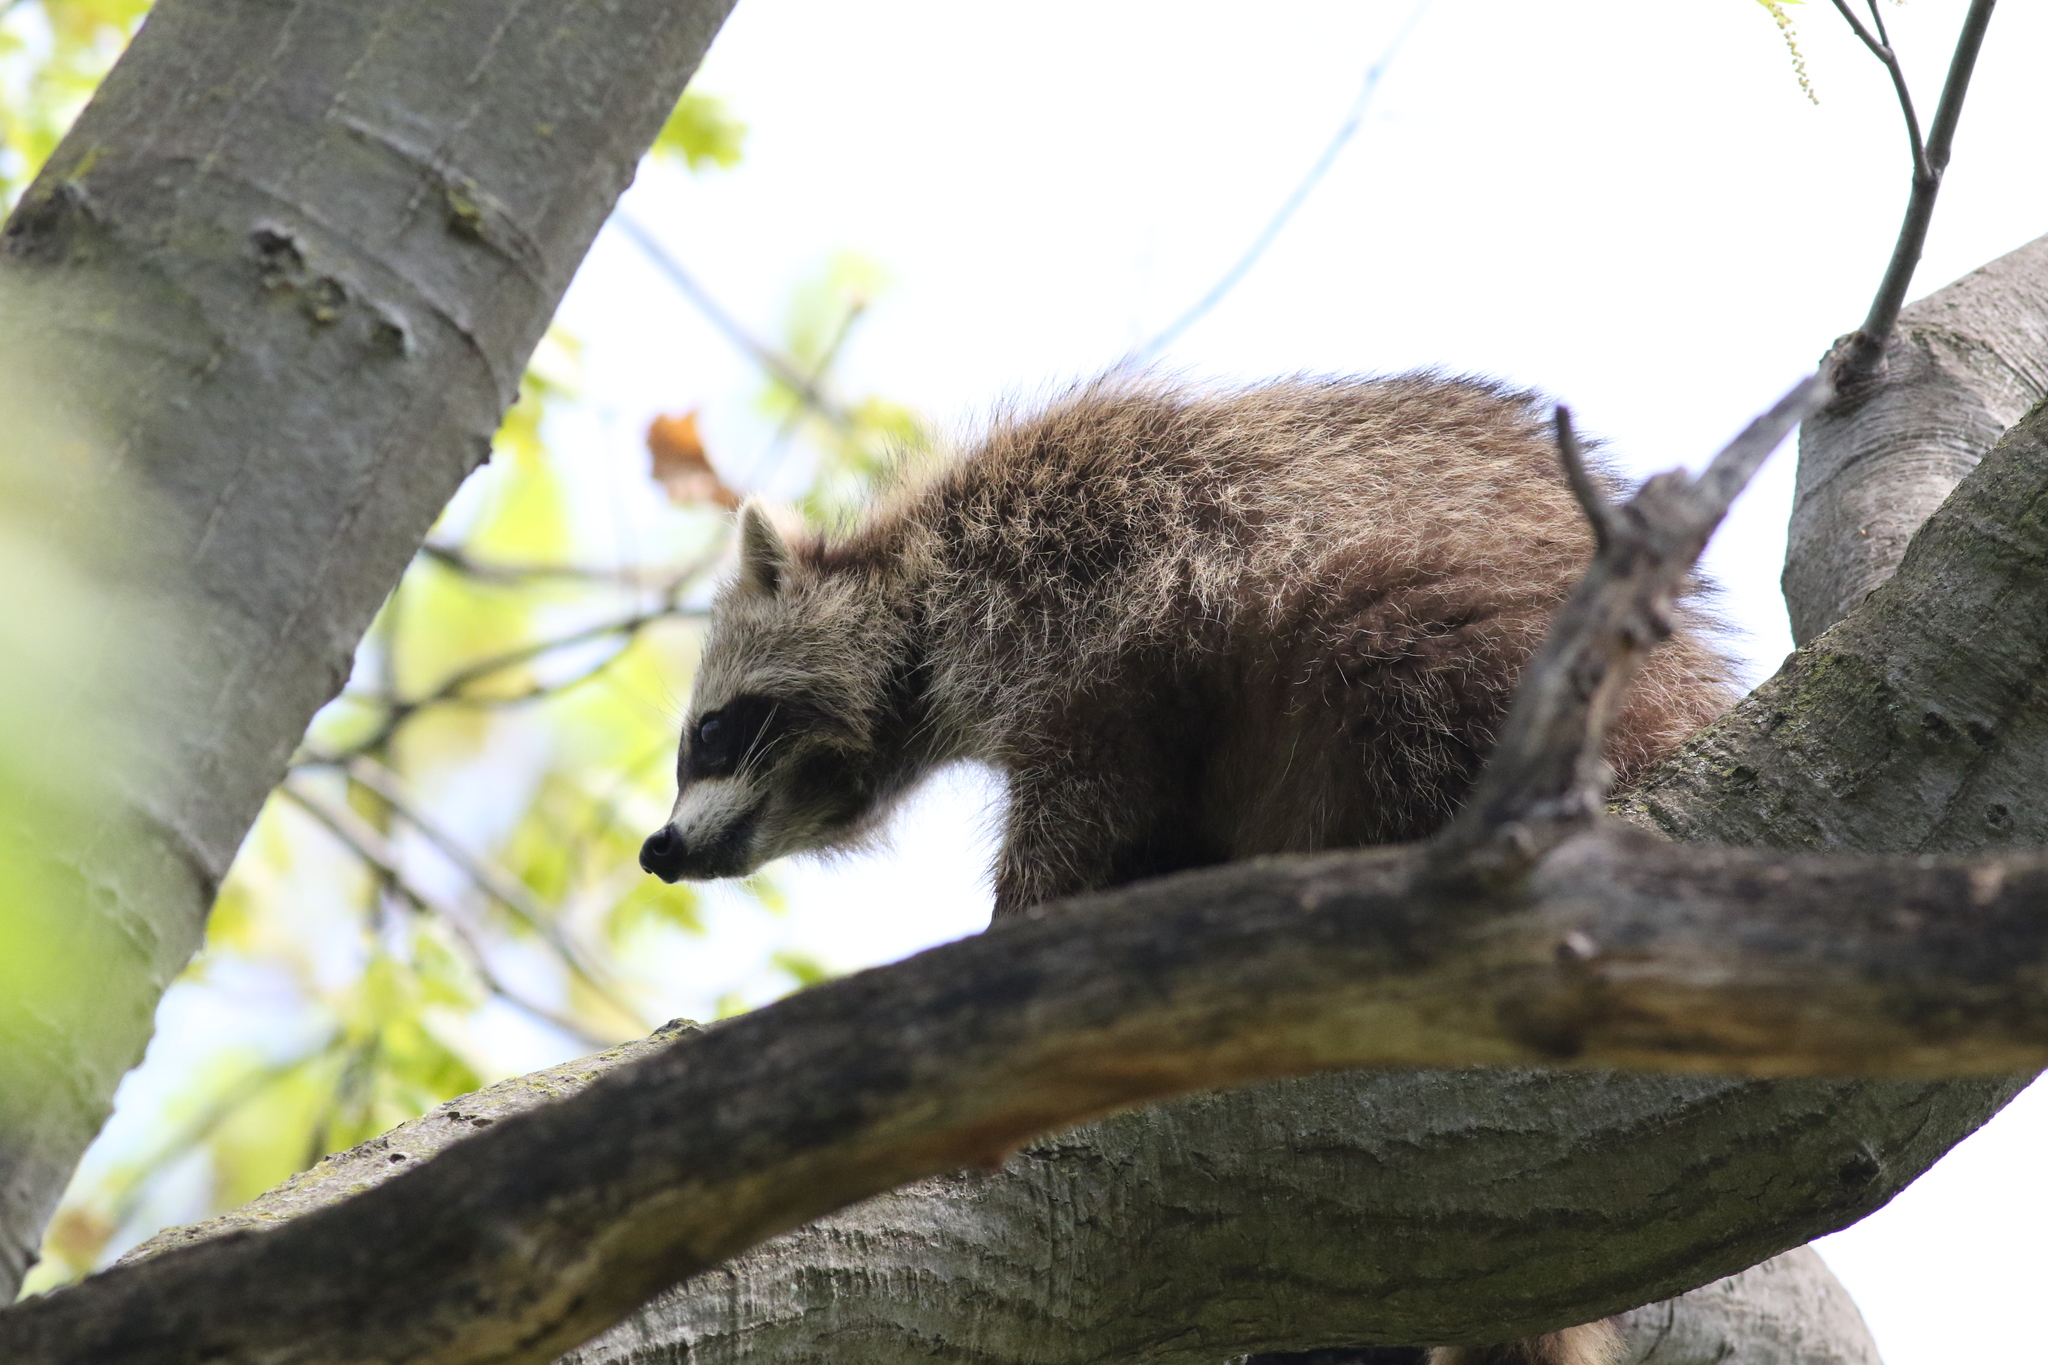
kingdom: Animalia
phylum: Chordata
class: Mammalia
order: Carnivora
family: Procyonidae
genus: Procyon
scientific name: Procyon lotor
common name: Raccoon
